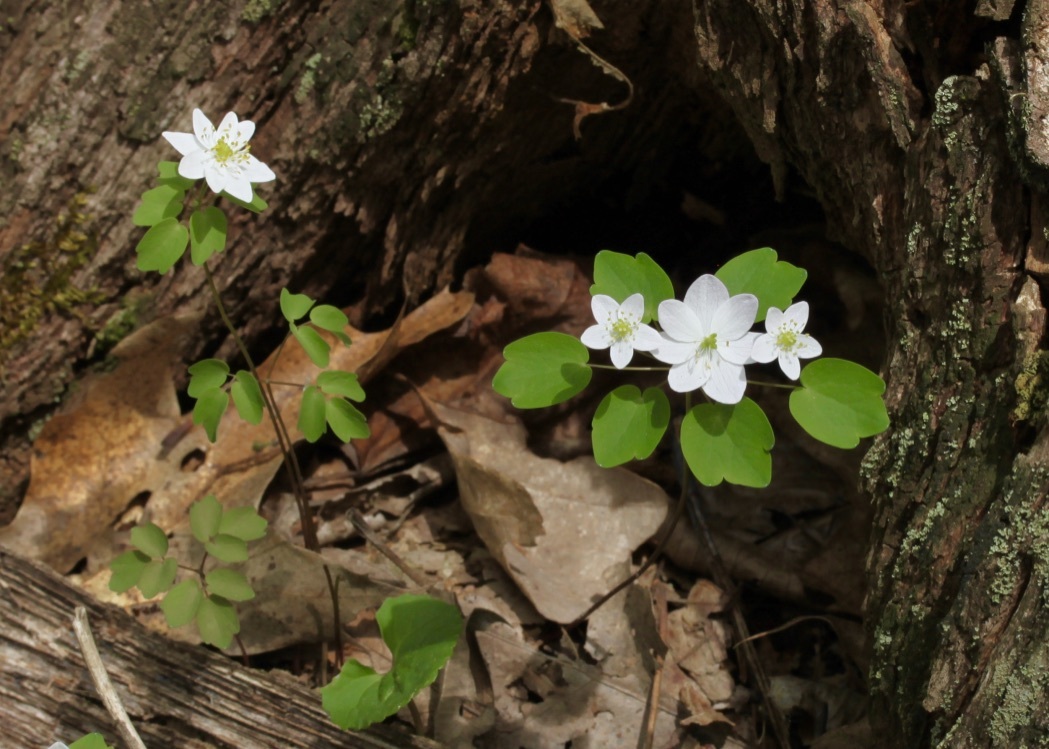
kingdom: Plantae
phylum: Tracheophyta
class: Magnoliopsida
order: Ranunculales
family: Ranunculaceae
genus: Thalictrum
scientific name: Thalictrum thalictroides
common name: Rue-anemone
